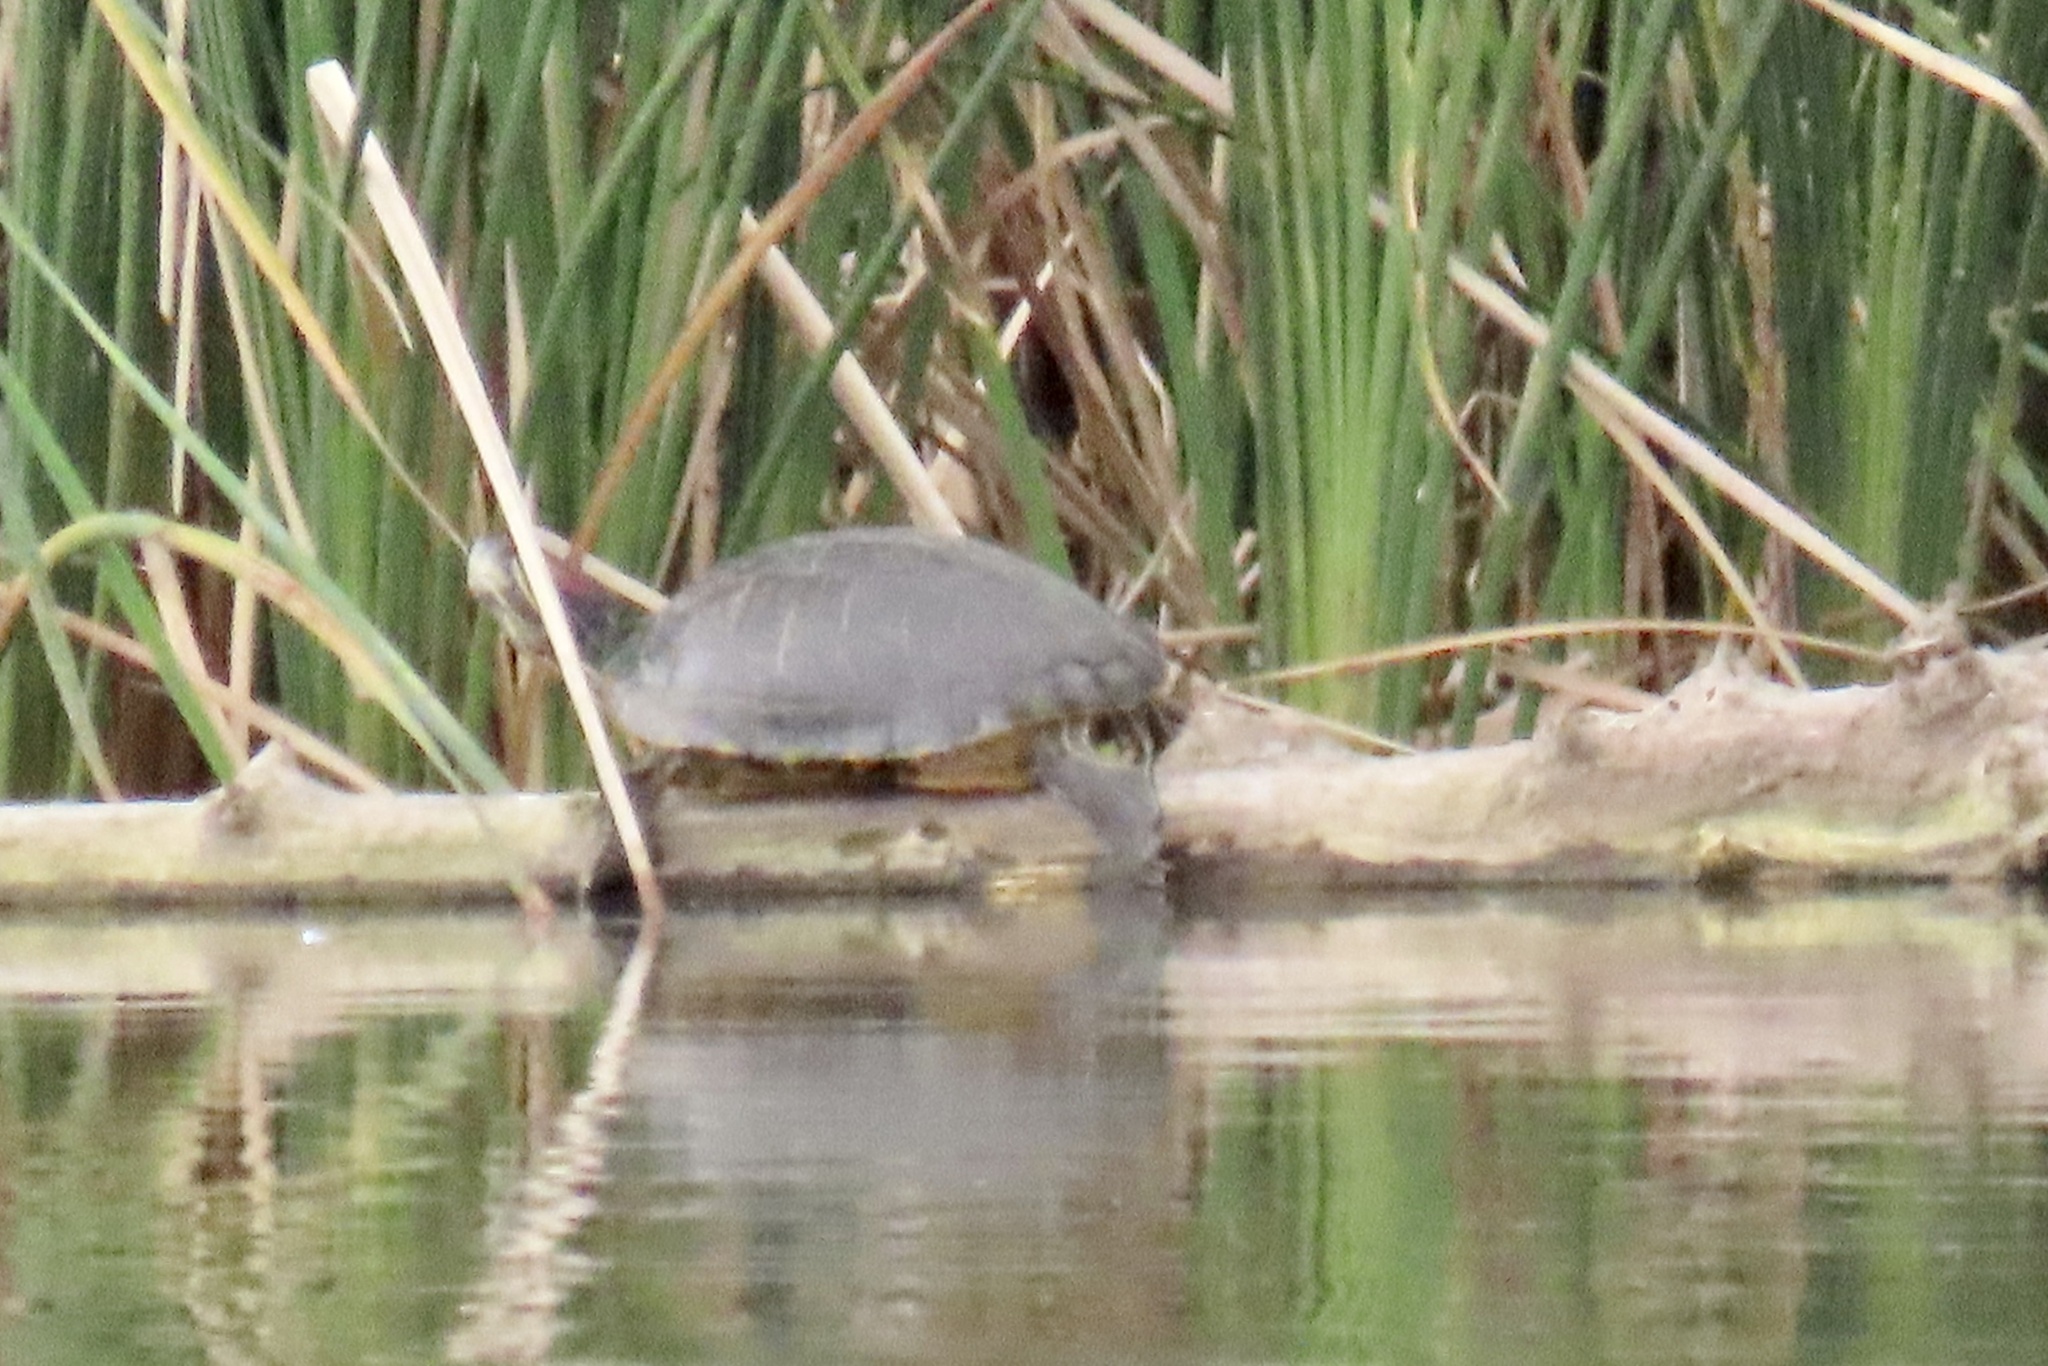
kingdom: Animalia
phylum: Chordata
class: Testudines
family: Emydidae
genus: Trachemys
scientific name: Trachemys scripta
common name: Slider
